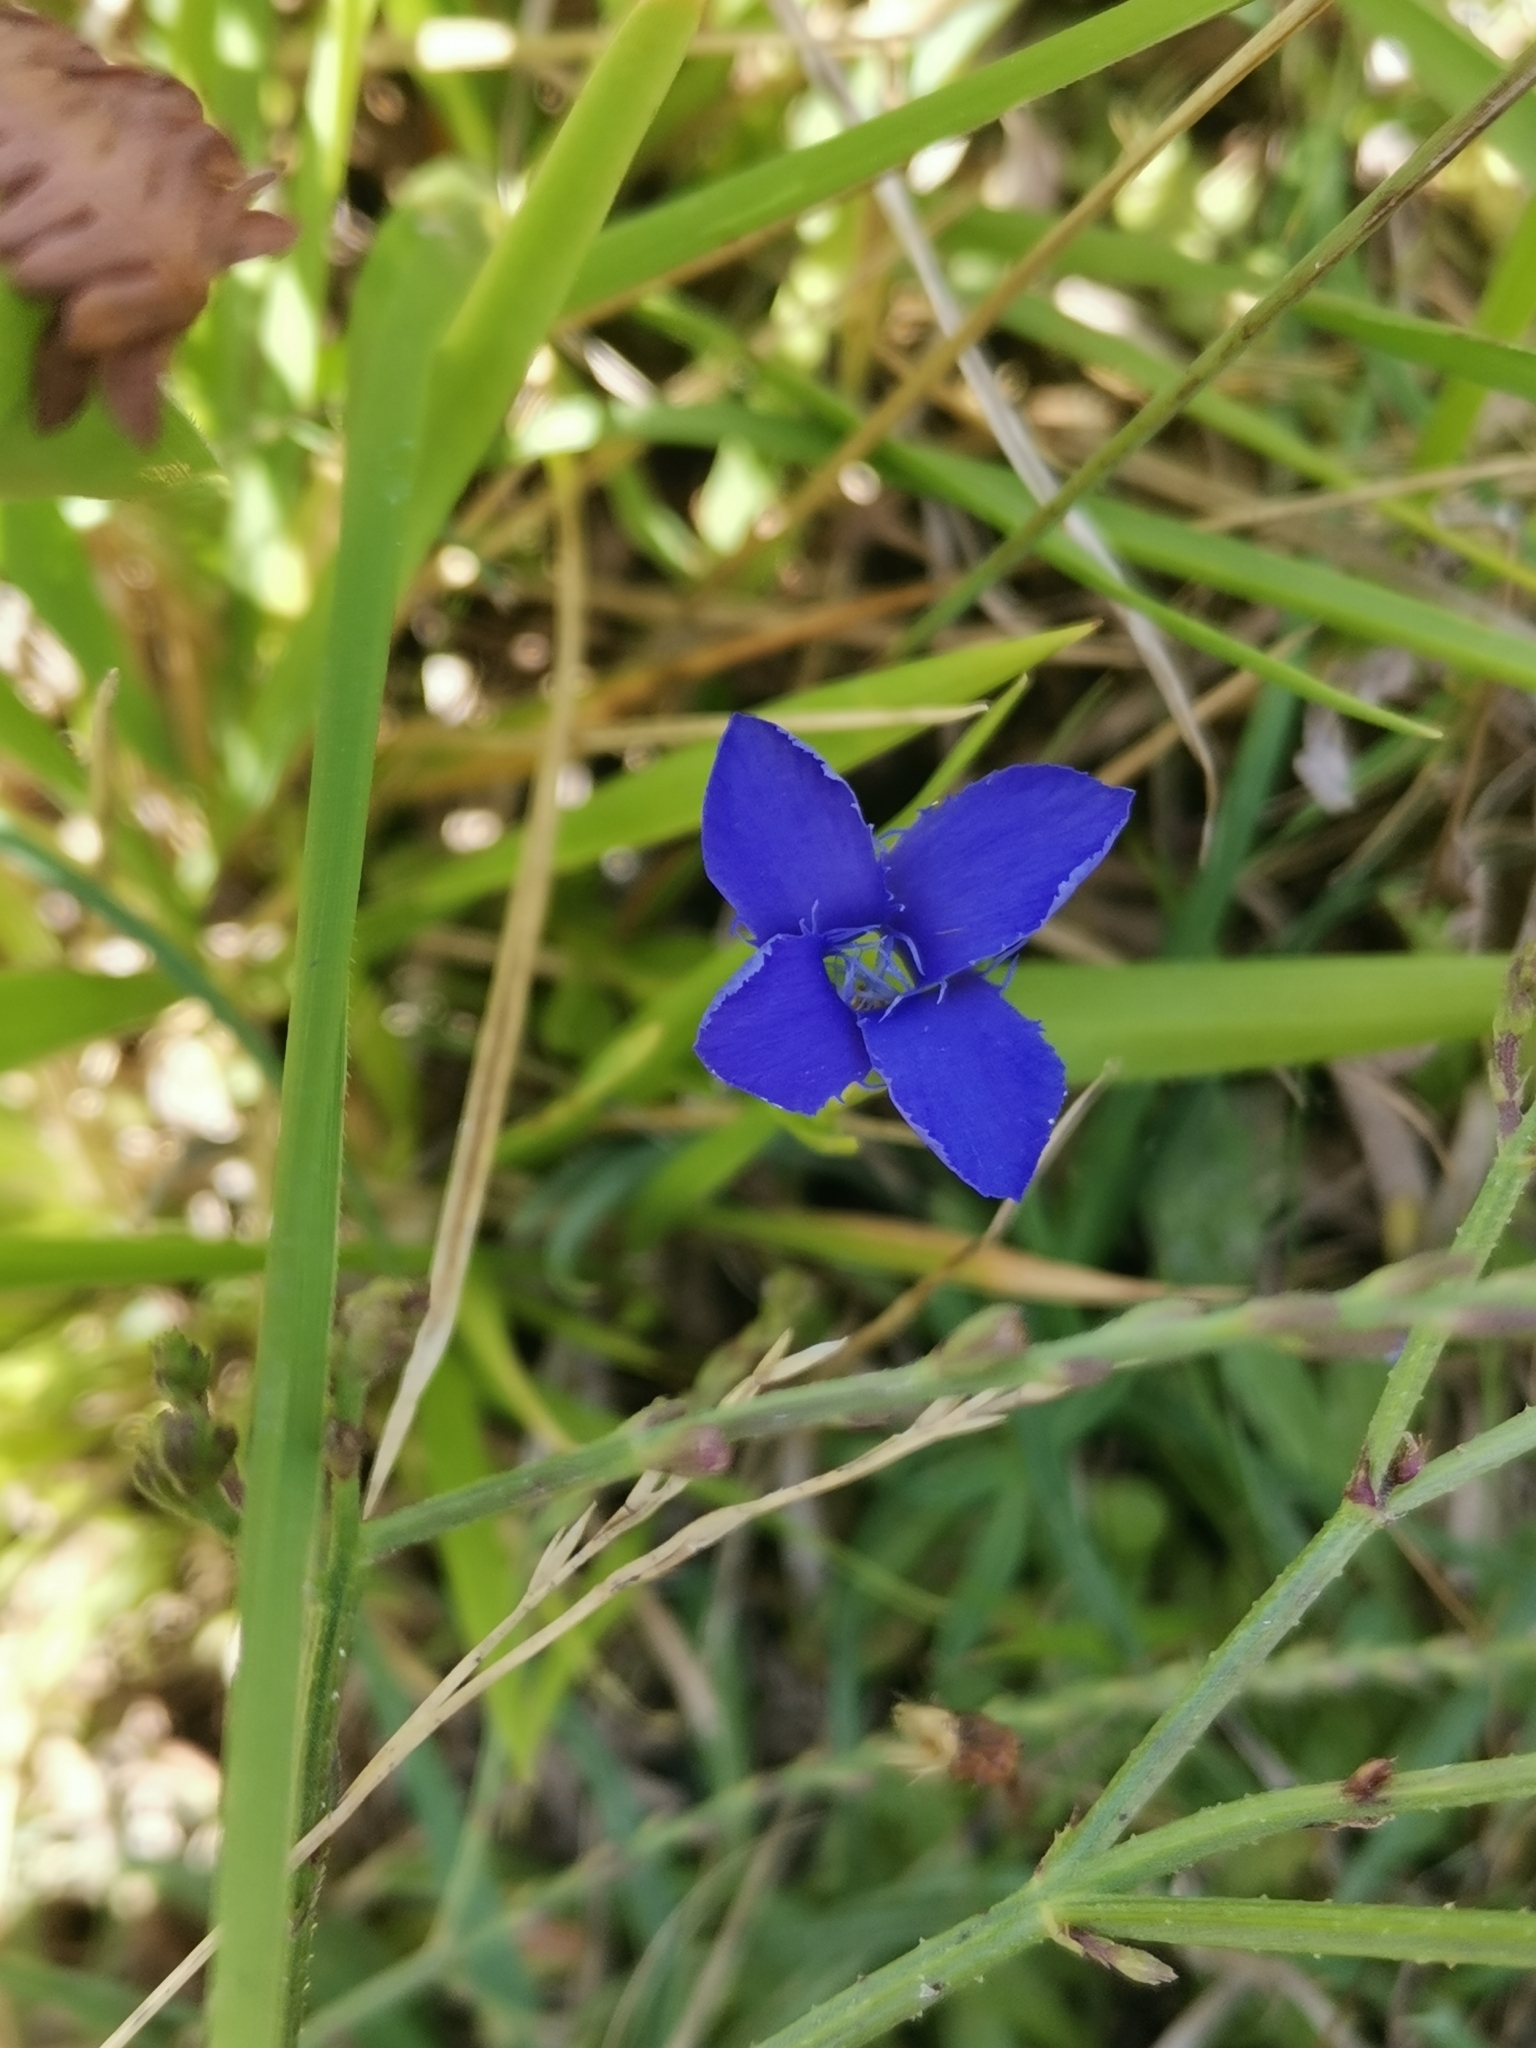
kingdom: Plantae
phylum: Tracheophyta
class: Magnoliopsida
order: Gentianales
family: Gentianaceae
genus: Gentianopsis
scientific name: Gentianopsis ciliata
